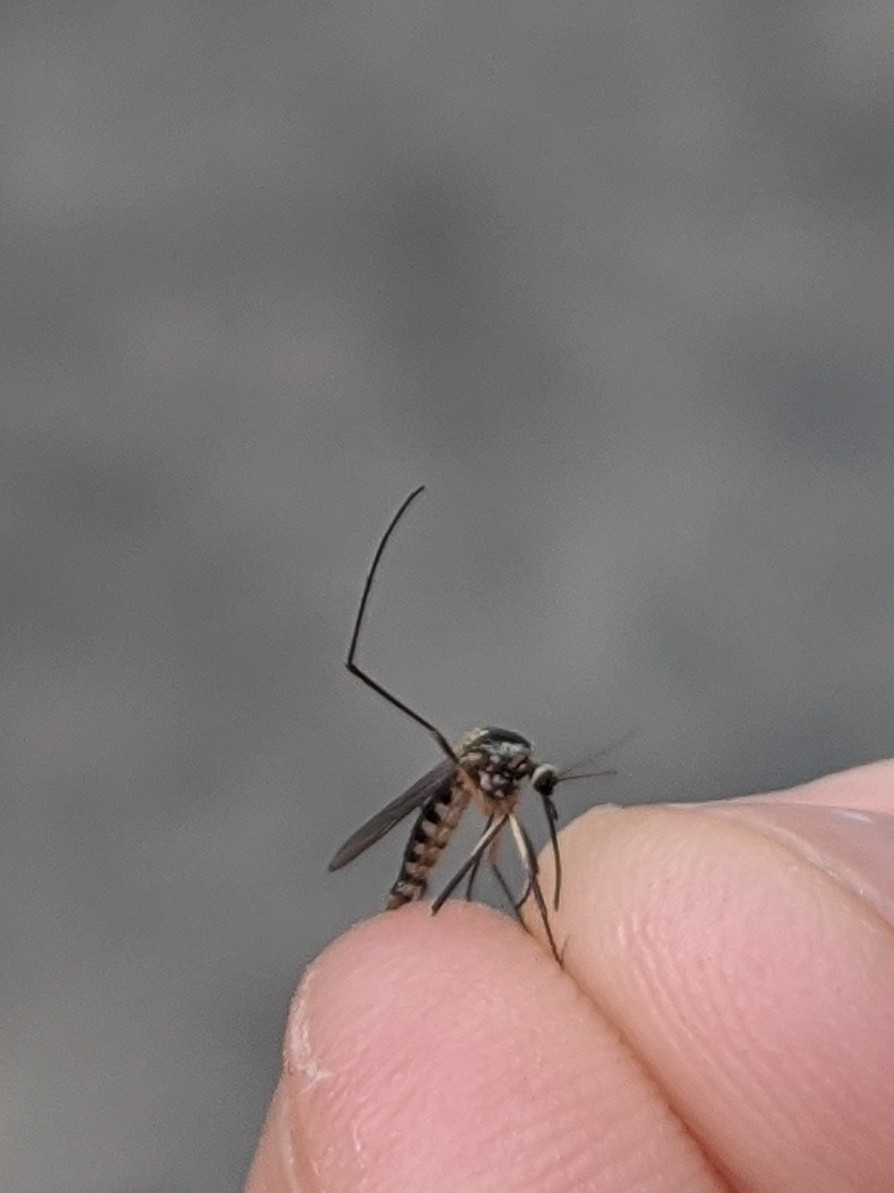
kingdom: Animalia
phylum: Arthropoda
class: Insecta
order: Diptera
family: Culicidae
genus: Aedes
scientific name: Aedes triseriatus
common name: Eastern treehole mosquito
